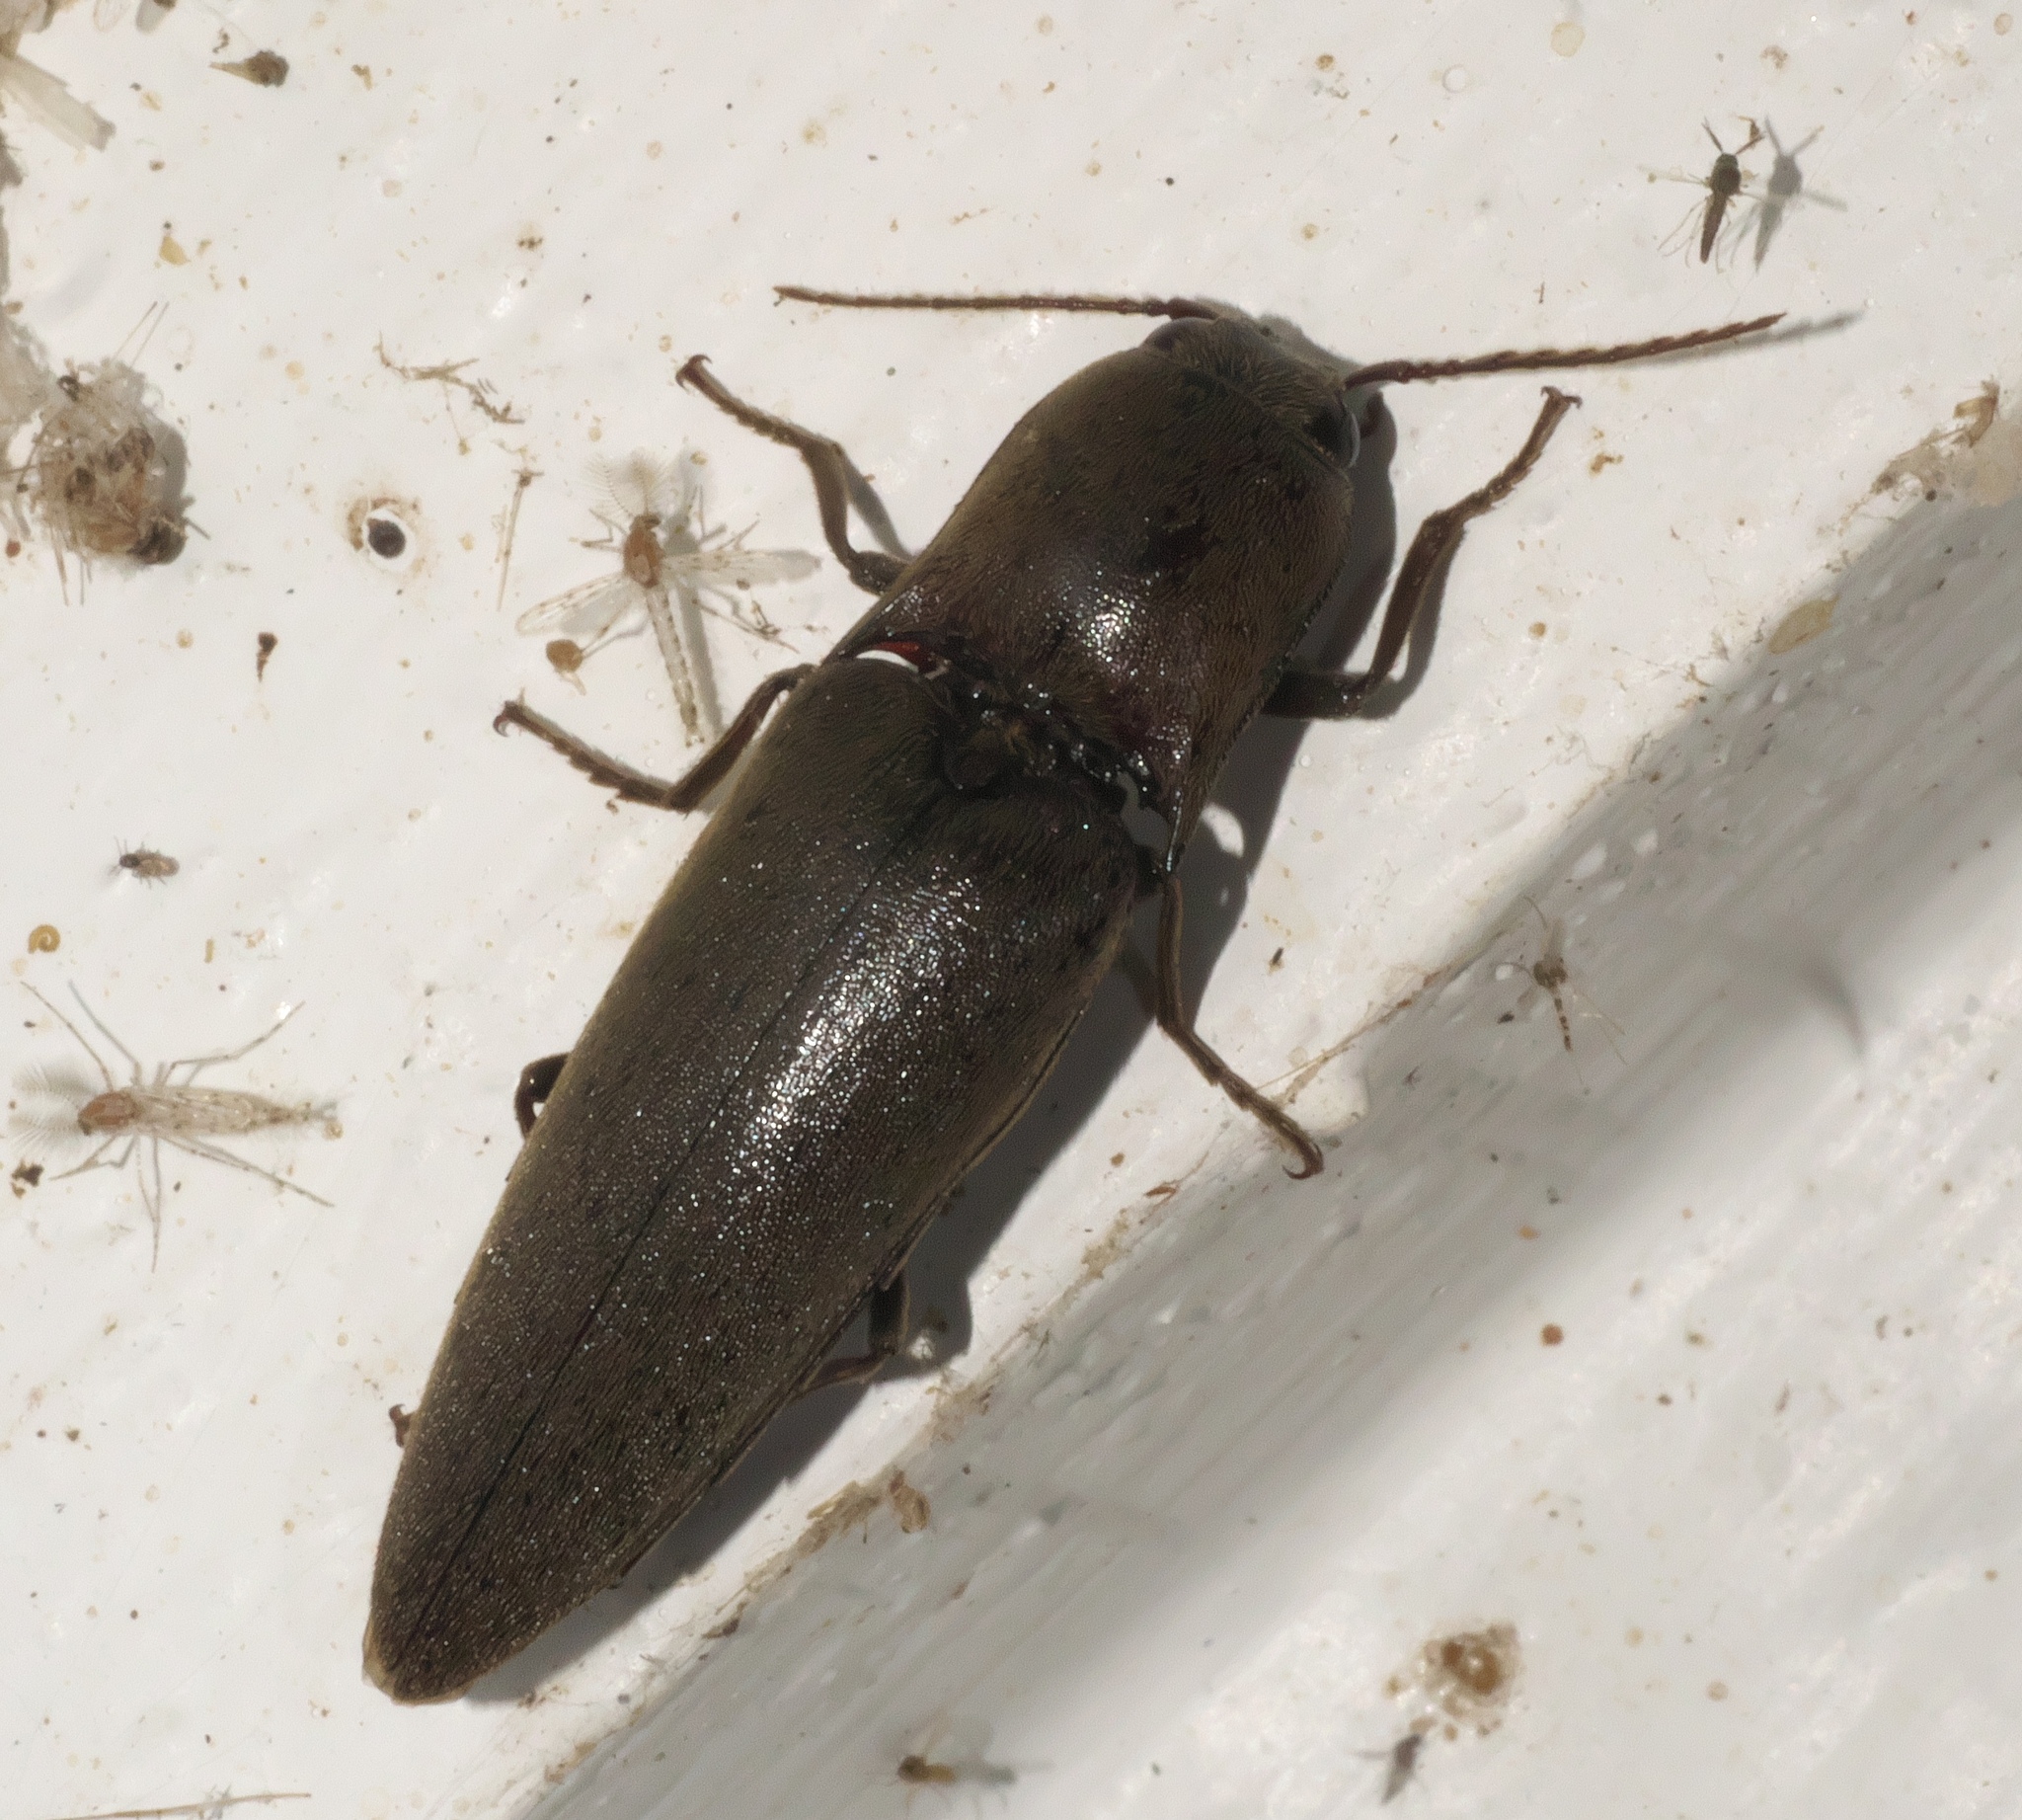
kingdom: Animalia
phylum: Arthropoda
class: Insecta
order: Coleoptera
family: Elateridae
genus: Orthostethus
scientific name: Orthostethus infuscatus
